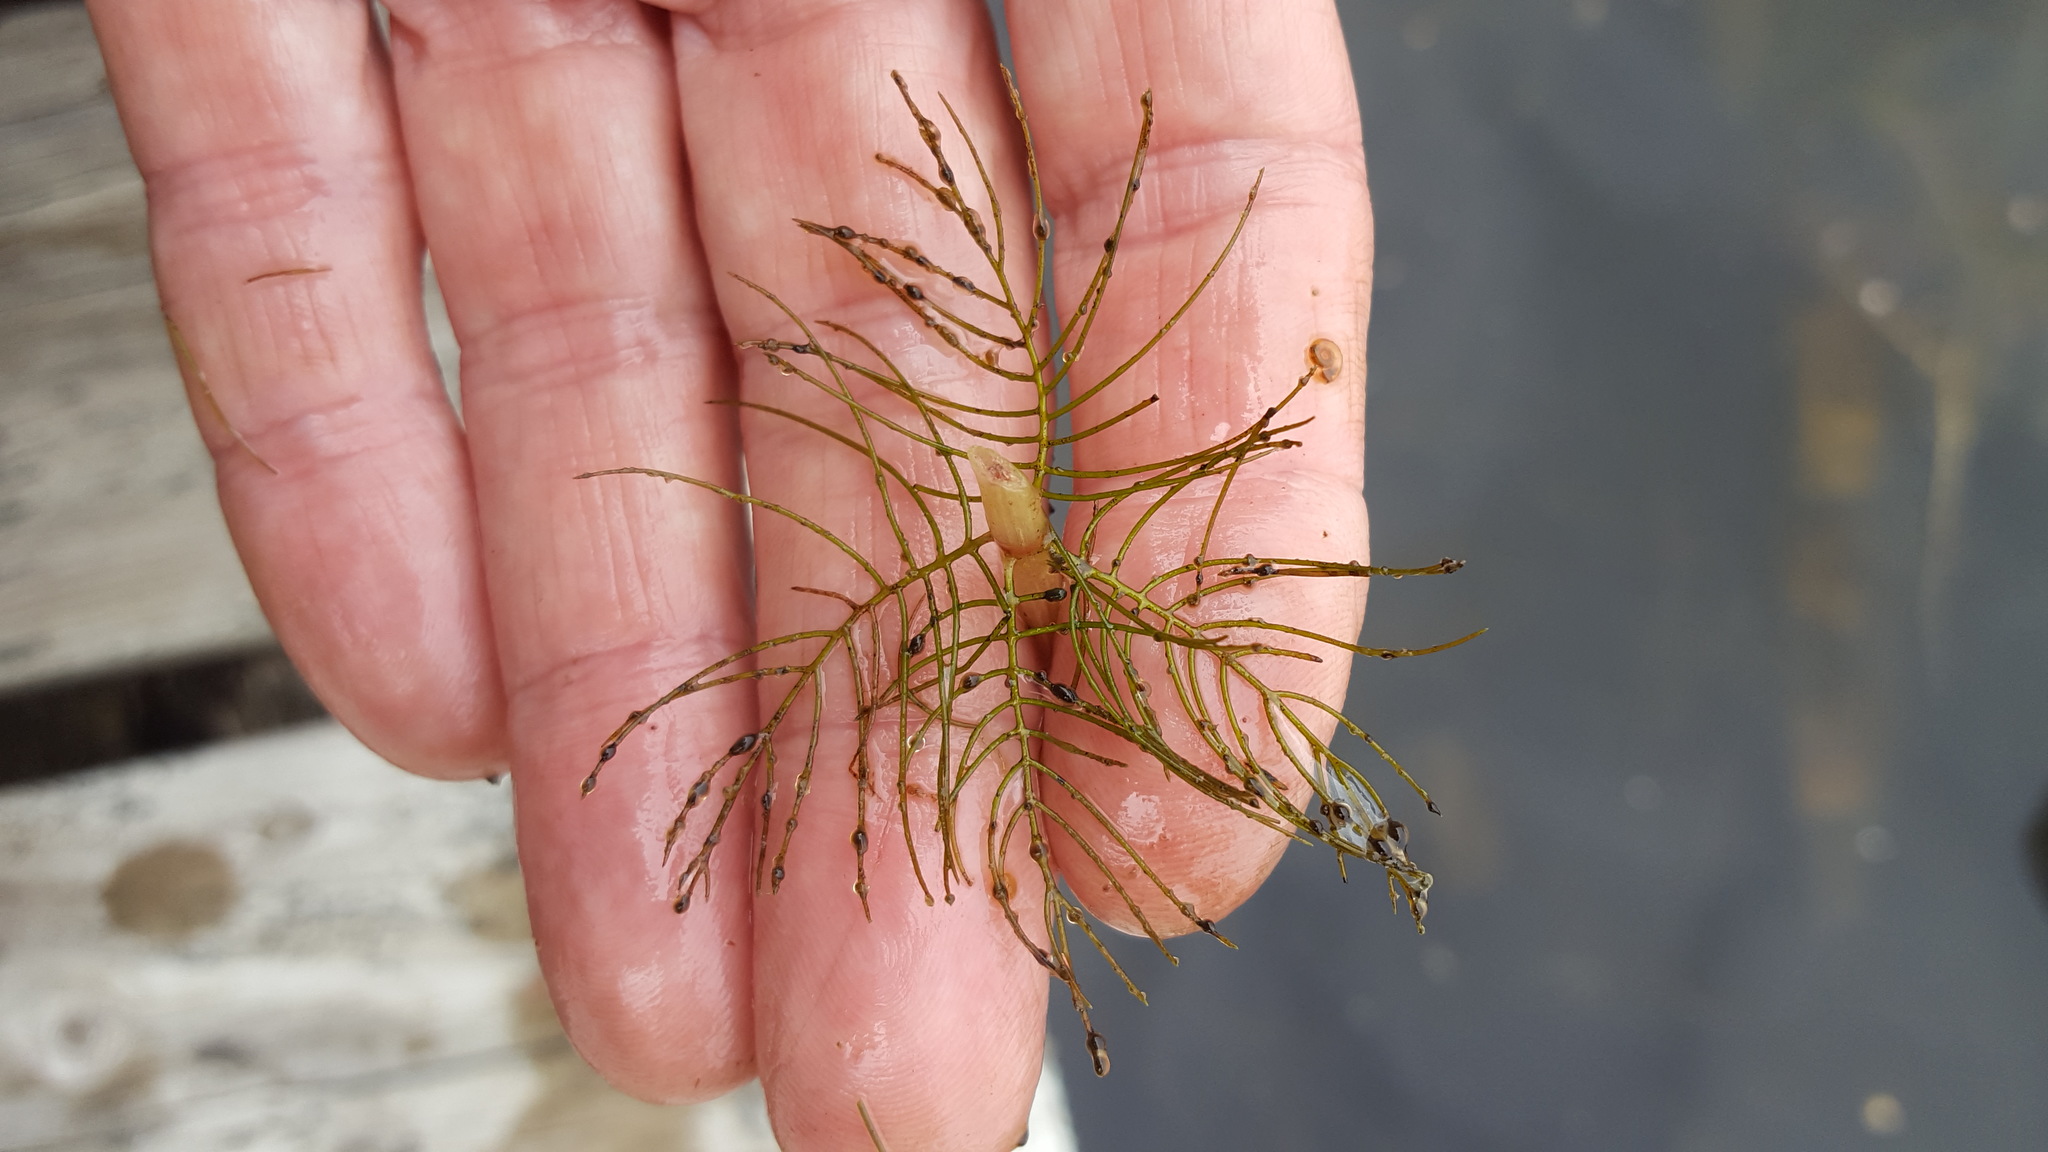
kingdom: Plantae
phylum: Tracheophyta
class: Magnoliopsida
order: Saxifragales
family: Haloragaceae
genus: Myriophyllum
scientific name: Myriophyllum sibiricum
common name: Siberian water-milfoil
